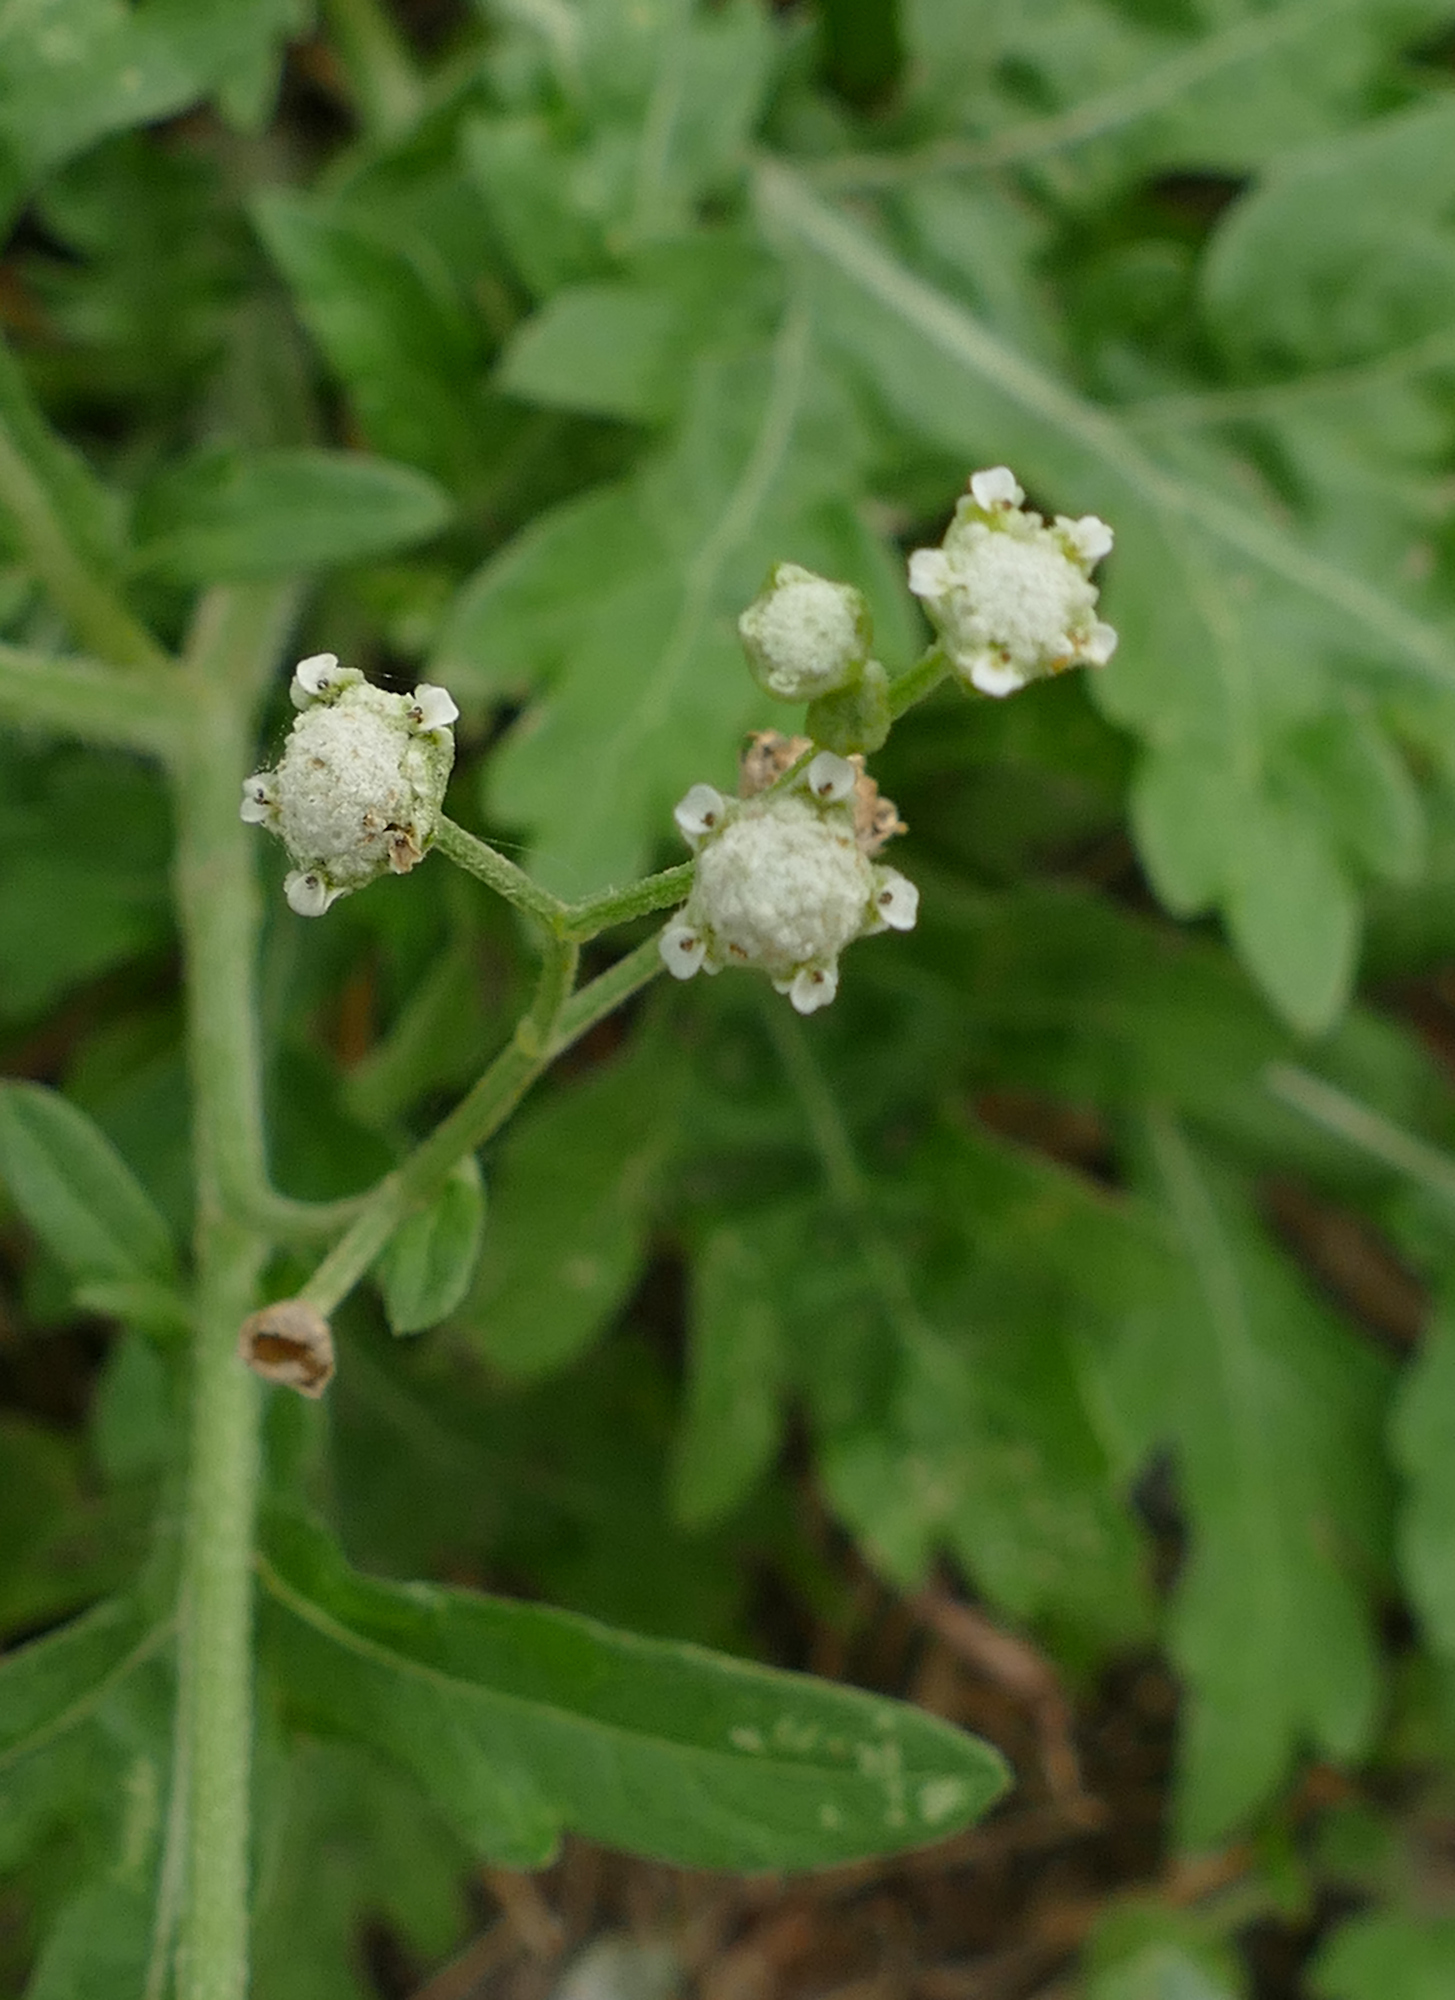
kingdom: Plantae
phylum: Tracheophyta
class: Magnoliopsida
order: Asterales
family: Asteraceae
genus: Parthenium
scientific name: Parthenium hysterophorus
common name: Santa maria feverfew
